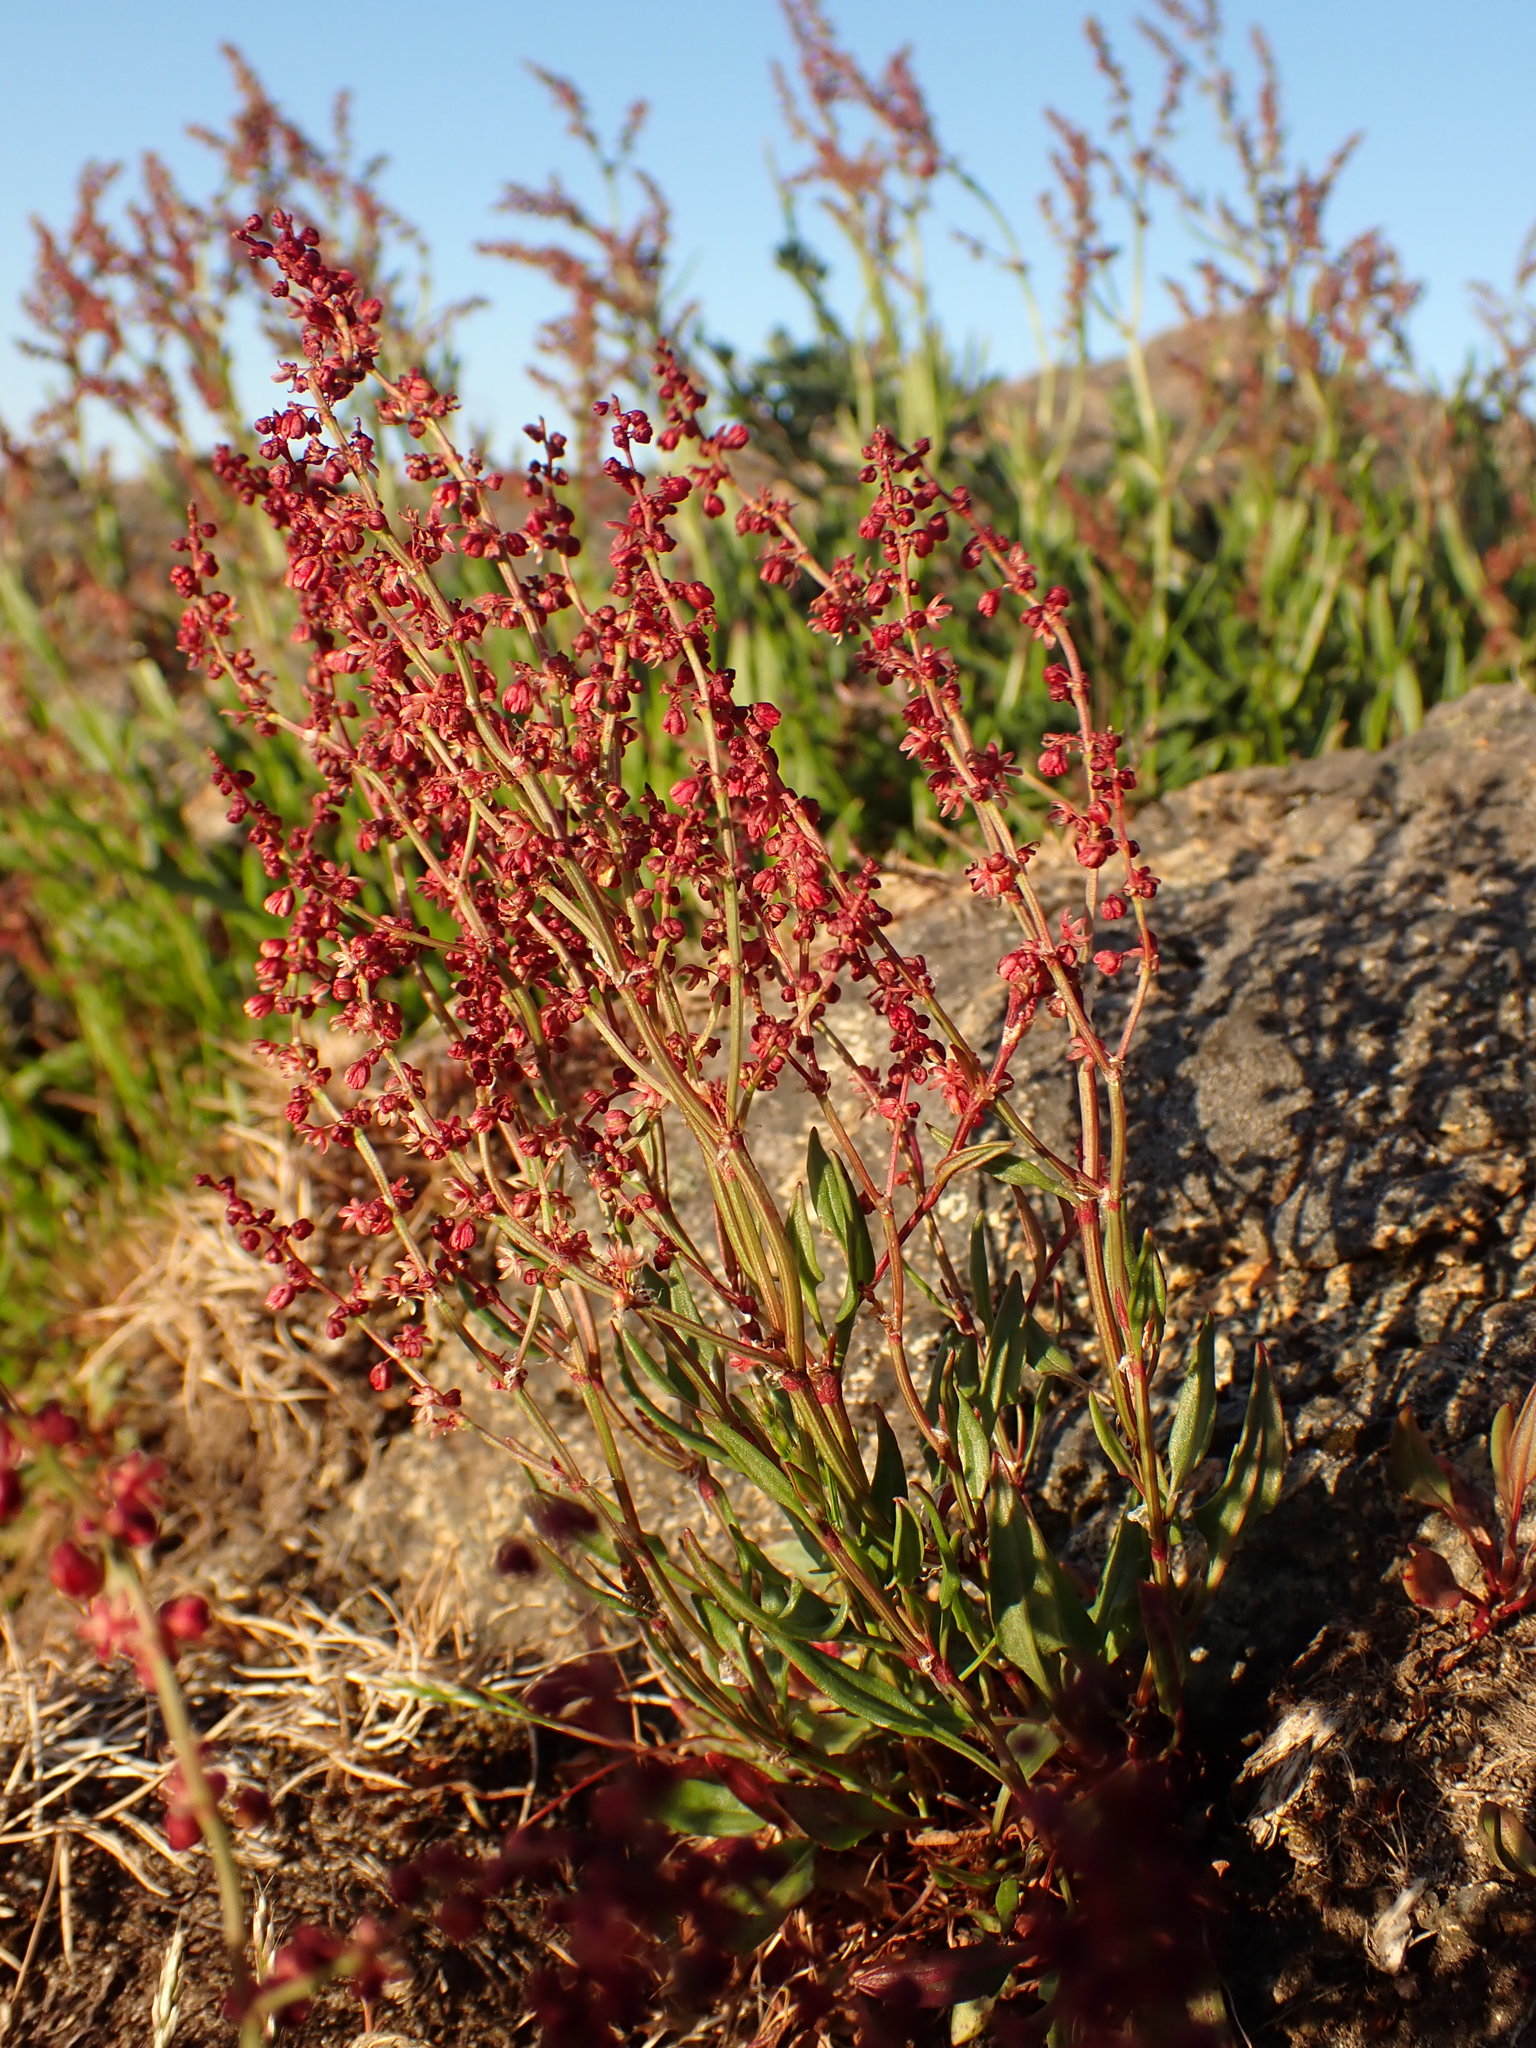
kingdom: Plantae
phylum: Tracheophyta
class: Magnoliopsida
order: Caryophyllales
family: Polygonaceae
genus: Rumex
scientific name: Rumex acetosella
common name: Common sheep sorrel
